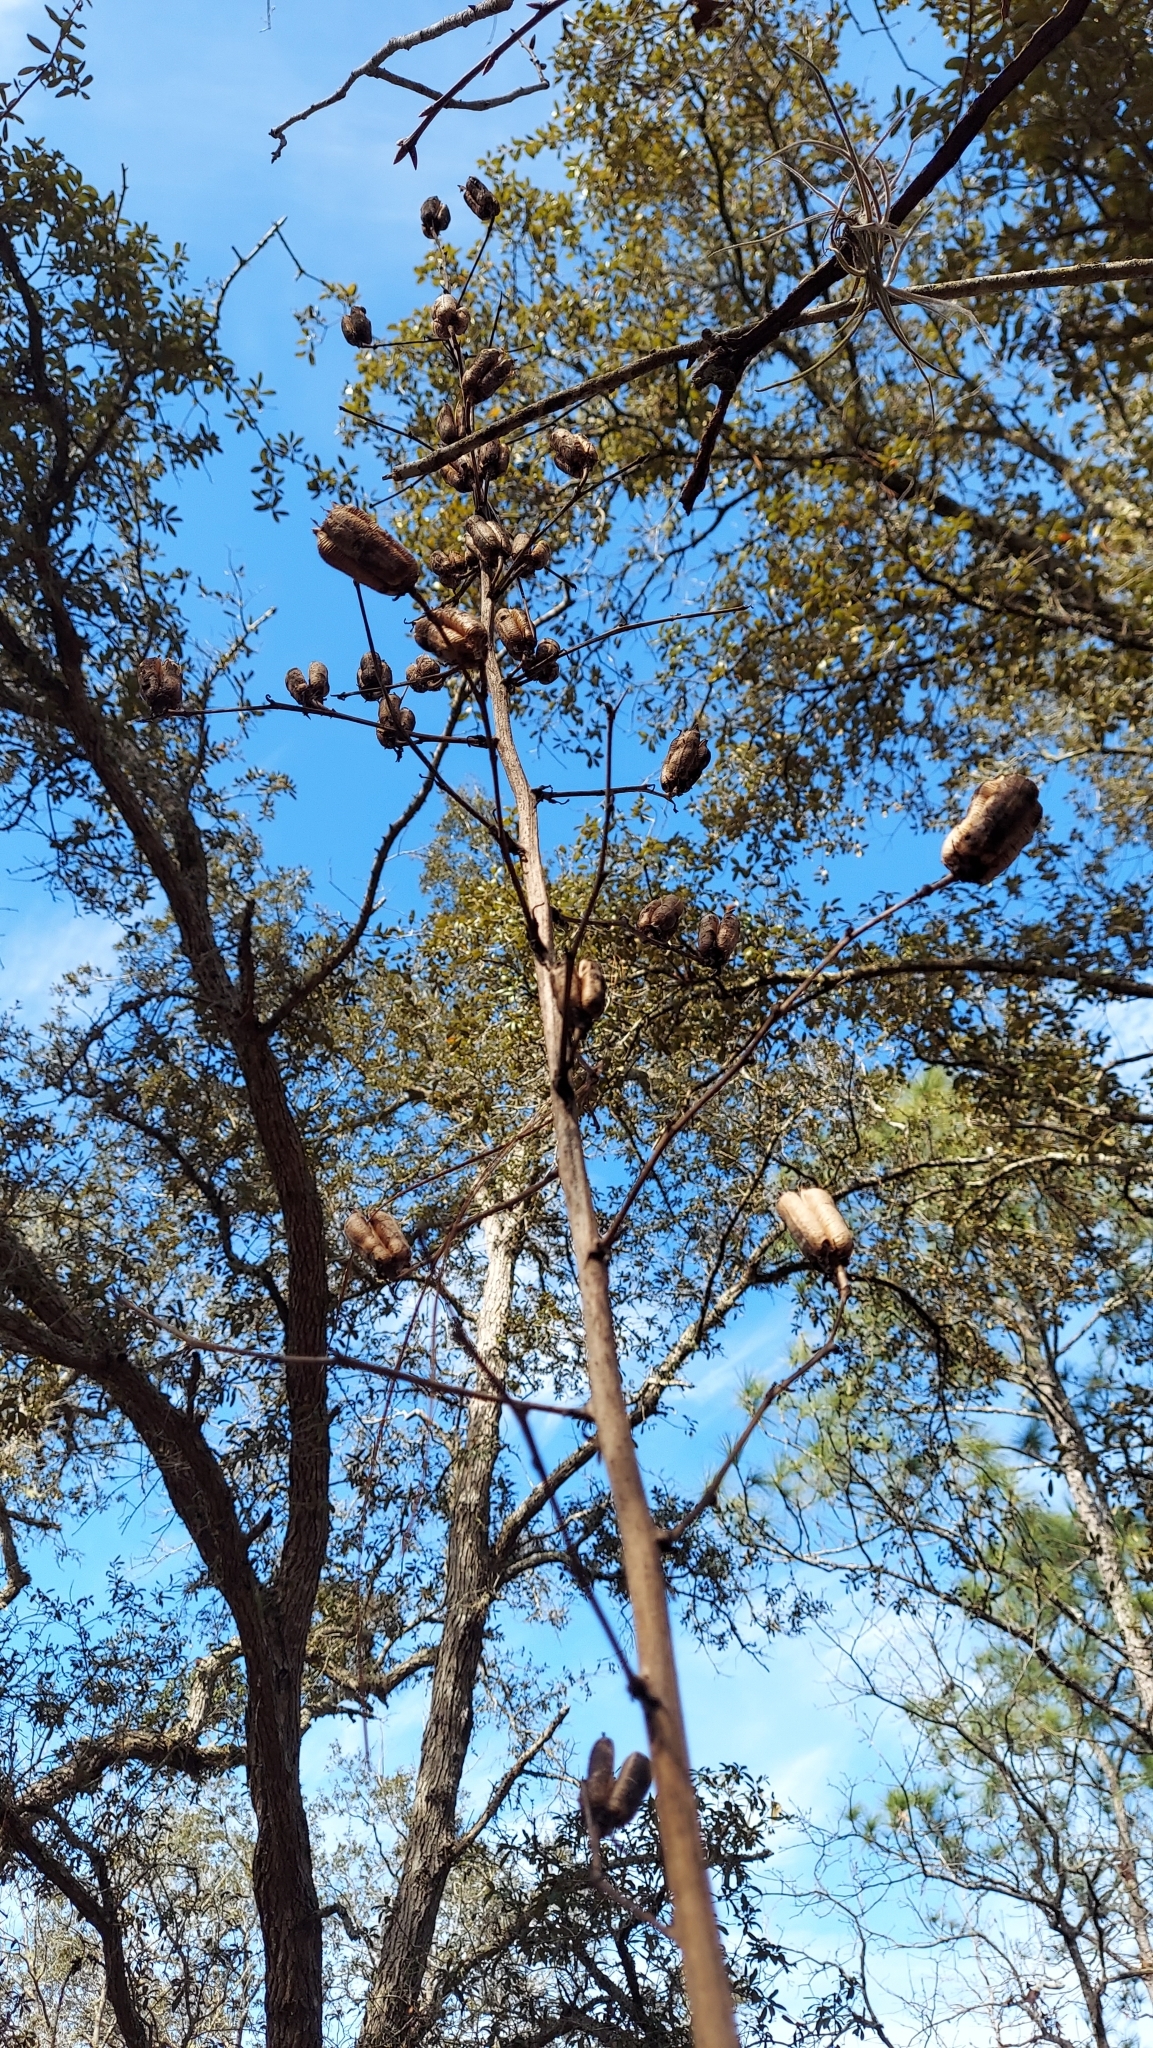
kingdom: Plantae
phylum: Tracheophyta
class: Liliopsida
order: Asparagales
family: Asparagaceae
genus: Yucca
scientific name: Yucca filamentosa
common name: Adam's-needle
